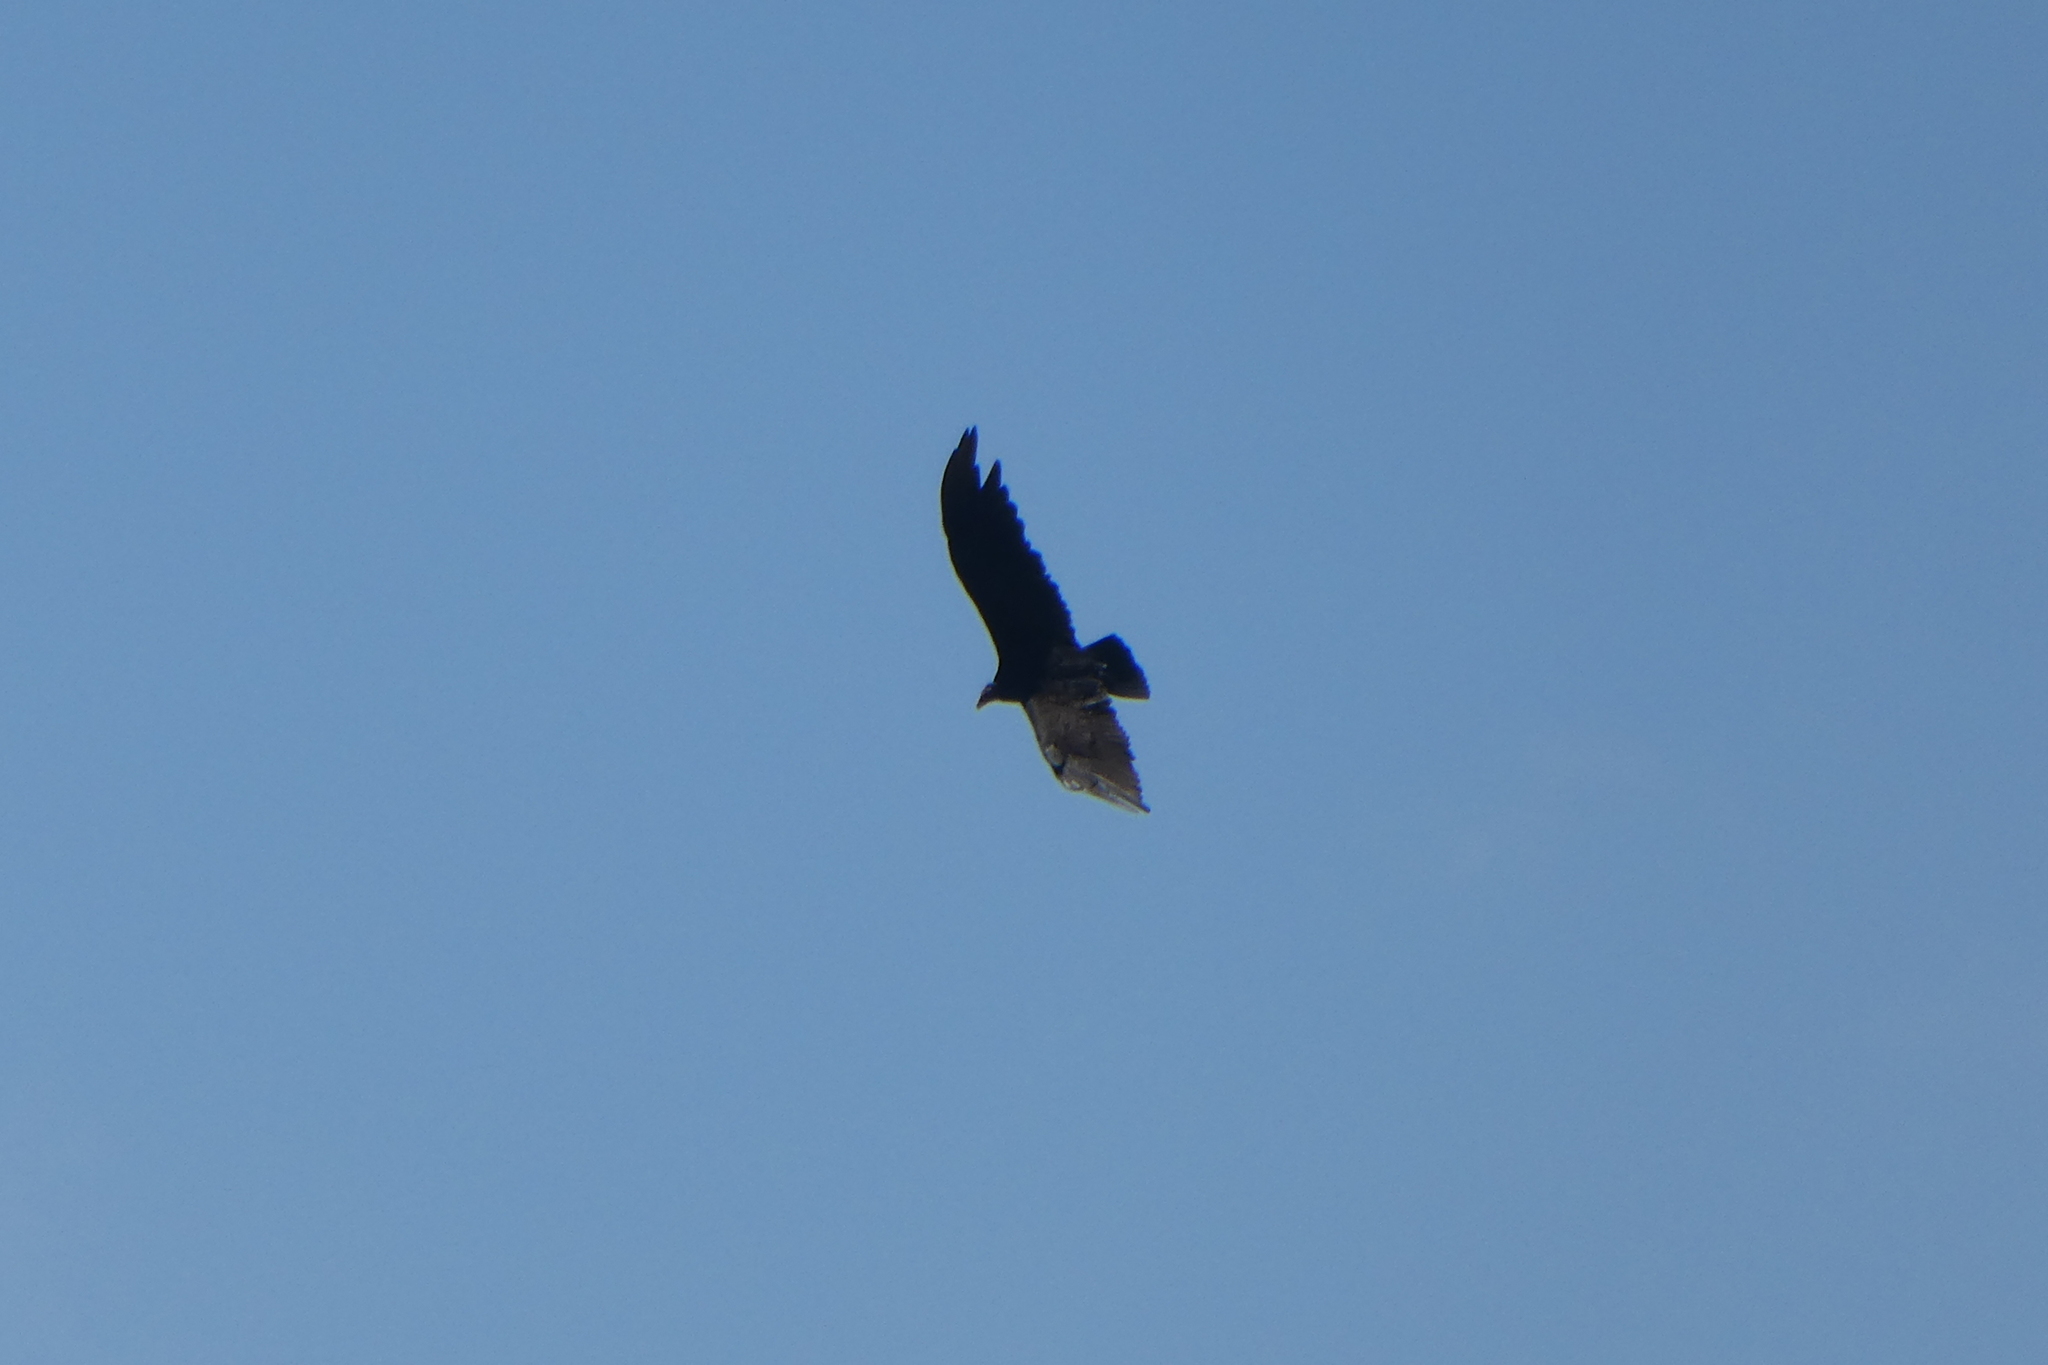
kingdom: Animalia
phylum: Chordata
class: Aves
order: Accipitriformes
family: Cathartidae
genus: Cathartes
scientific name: Cathartes aura
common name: Turkey vulture
